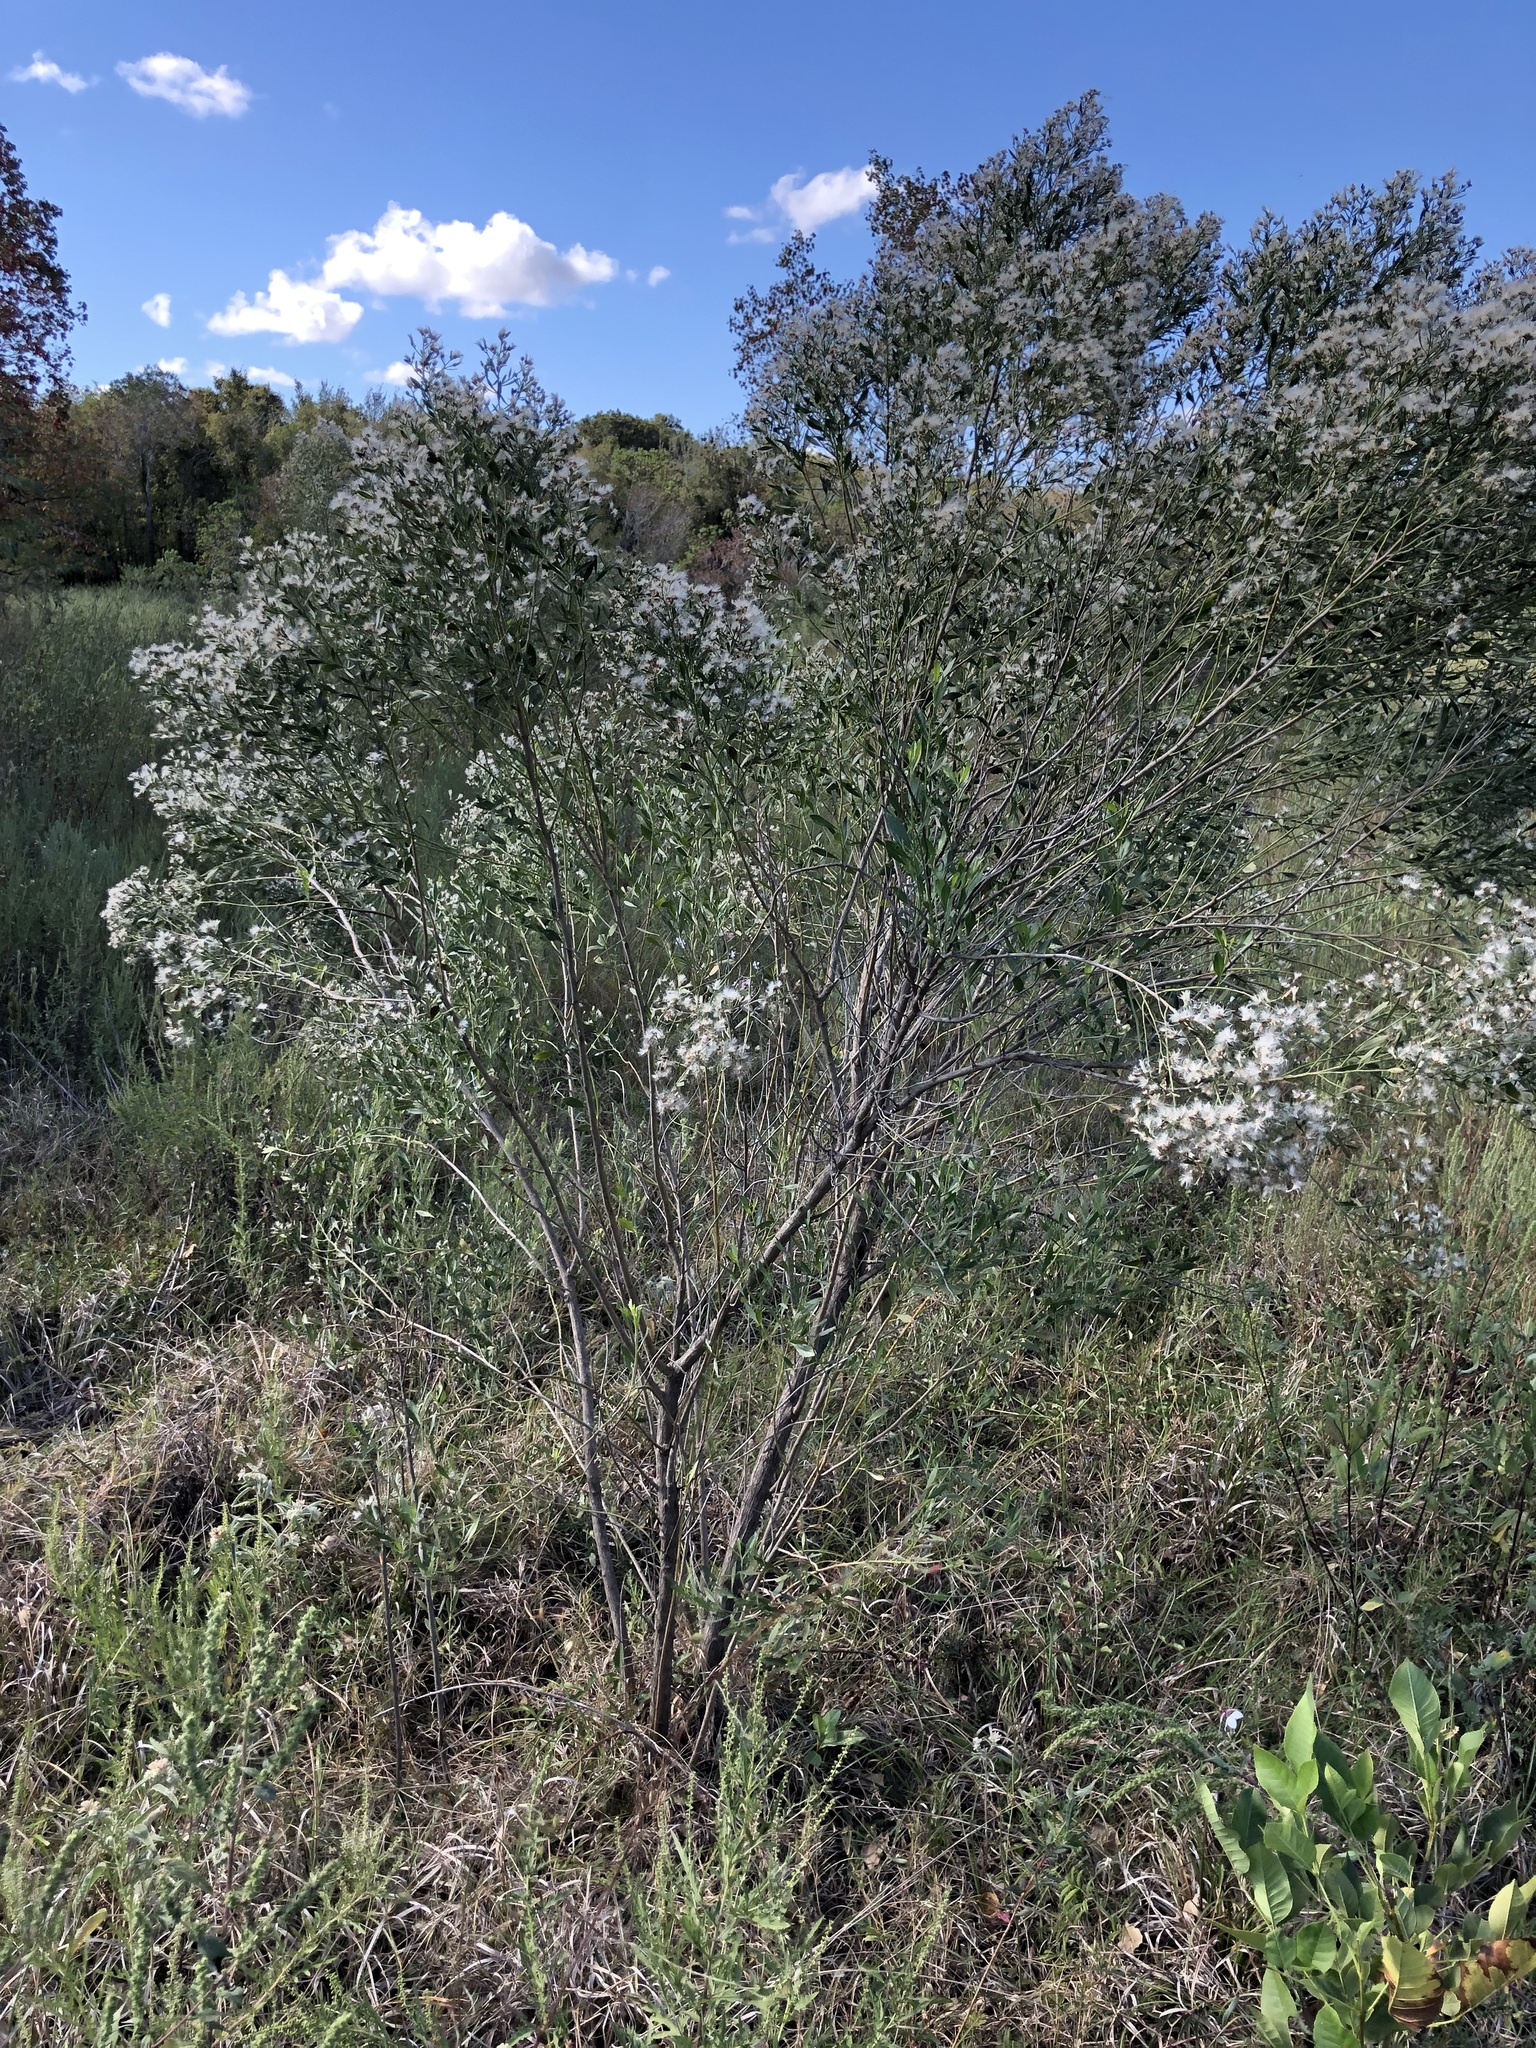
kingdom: Plantae
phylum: Tracheophyta
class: Magnoliopsida
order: Asterales
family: Asteraceae
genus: Baccharis
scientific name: Baccharis halimifolia
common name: Eastern baccharis
